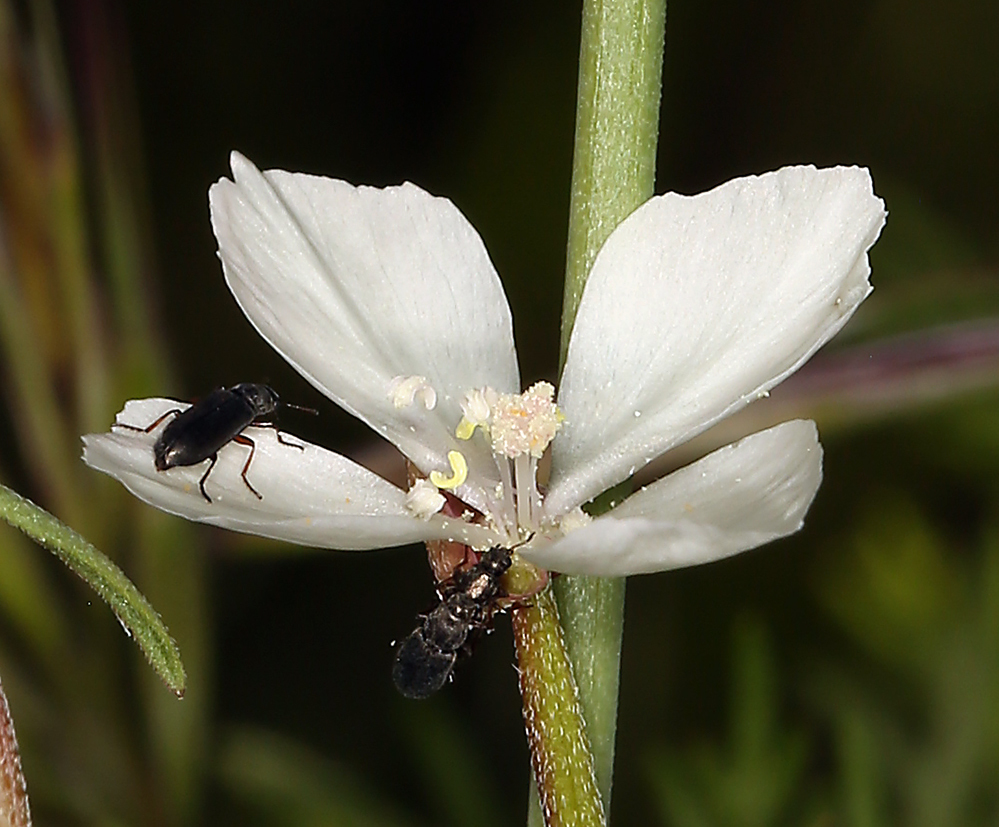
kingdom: Plantae
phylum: Tracheophyta
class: Magnoliopsida
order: Myrtales
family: Onagraceae
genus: Clarkia
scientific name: Clarkia epilobioides
